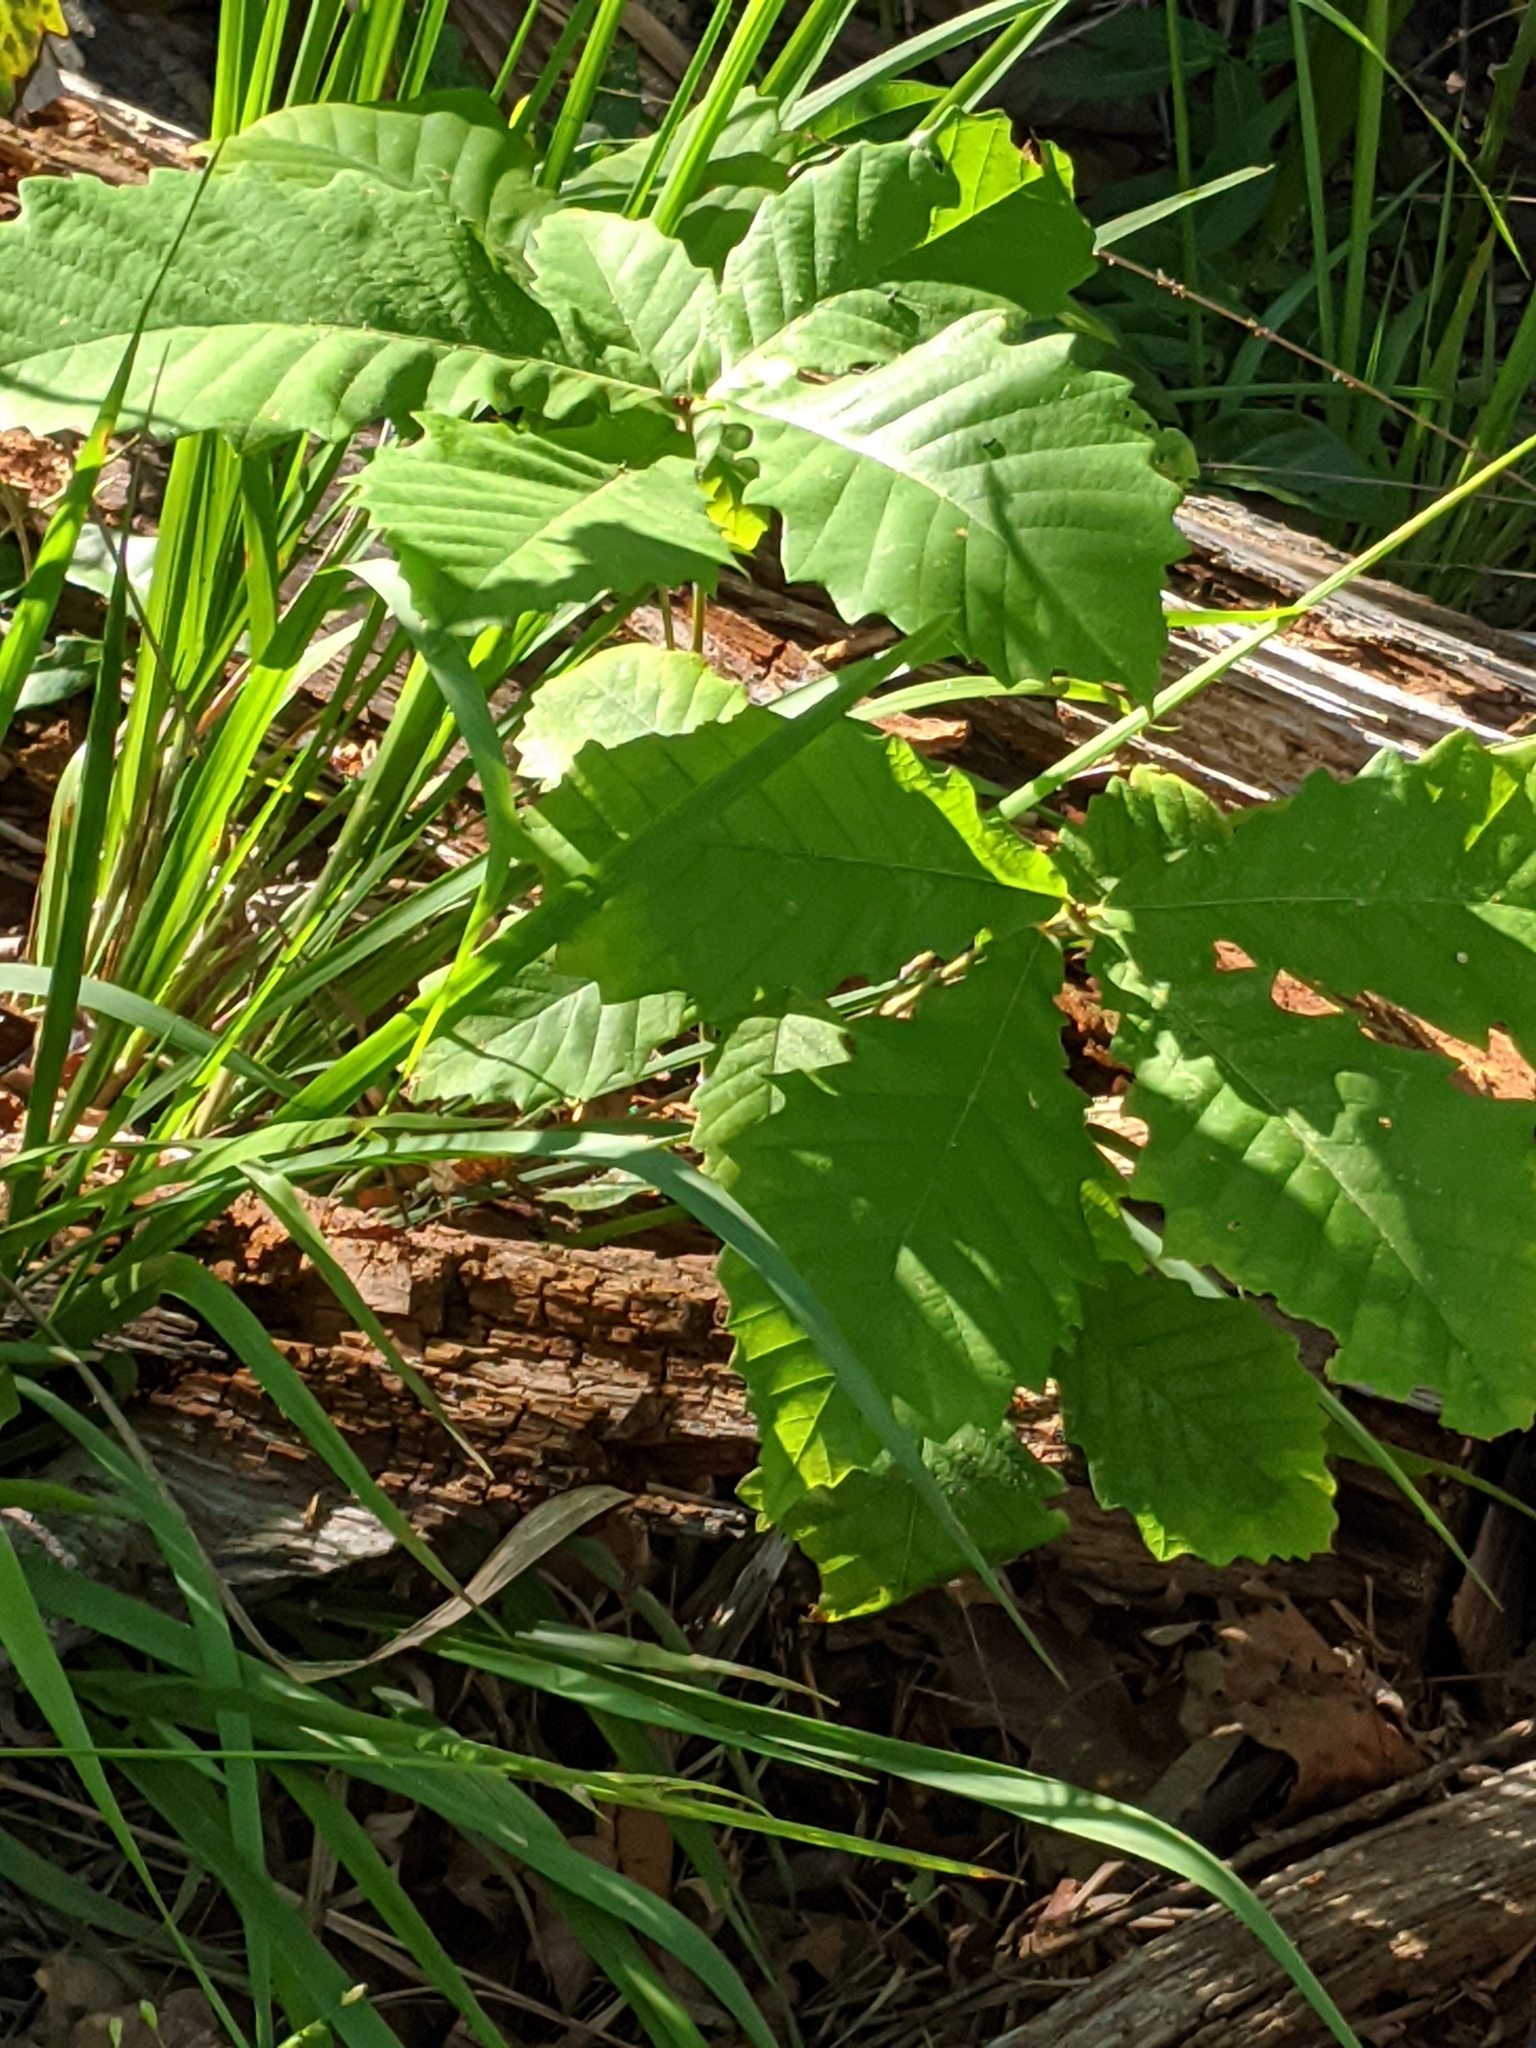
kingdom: Plantae
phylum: Tracheophyta
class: Magnoliopsida
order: Fagales
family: Fagaceae
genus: Quercus
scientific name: Quercus michauxii
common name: Swamp chestnut oak
